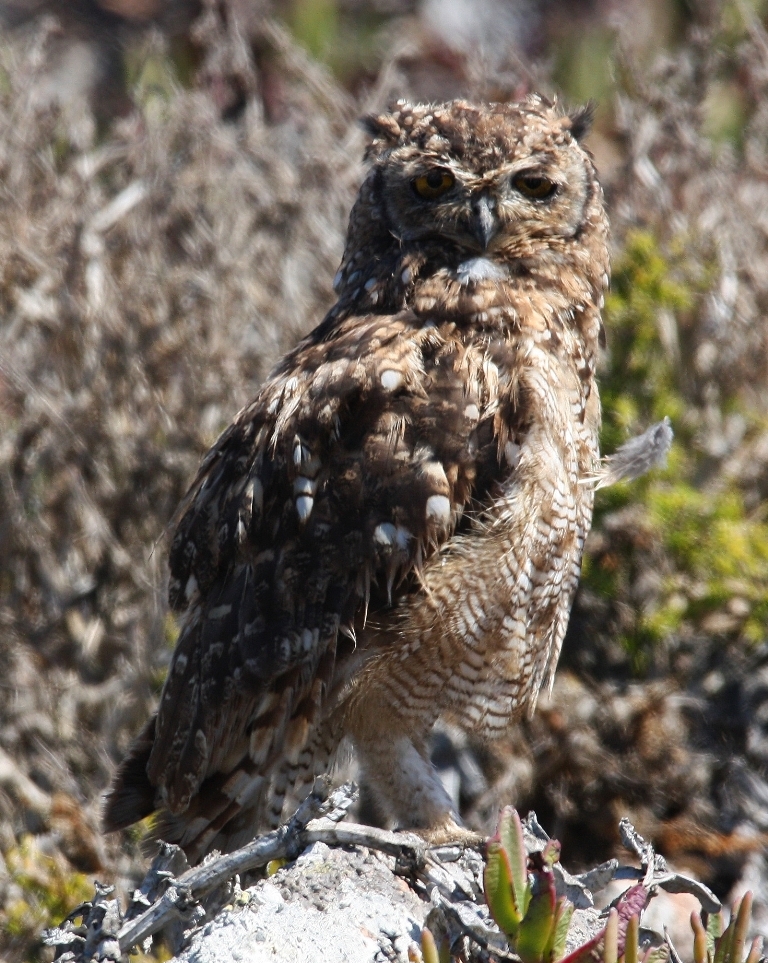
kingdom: Animalia
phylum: Chordata
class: Aves
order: Strigiformes
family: Strigidae
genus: Bubo
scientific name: Bubo africanus
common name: Spotted eagle-owl
